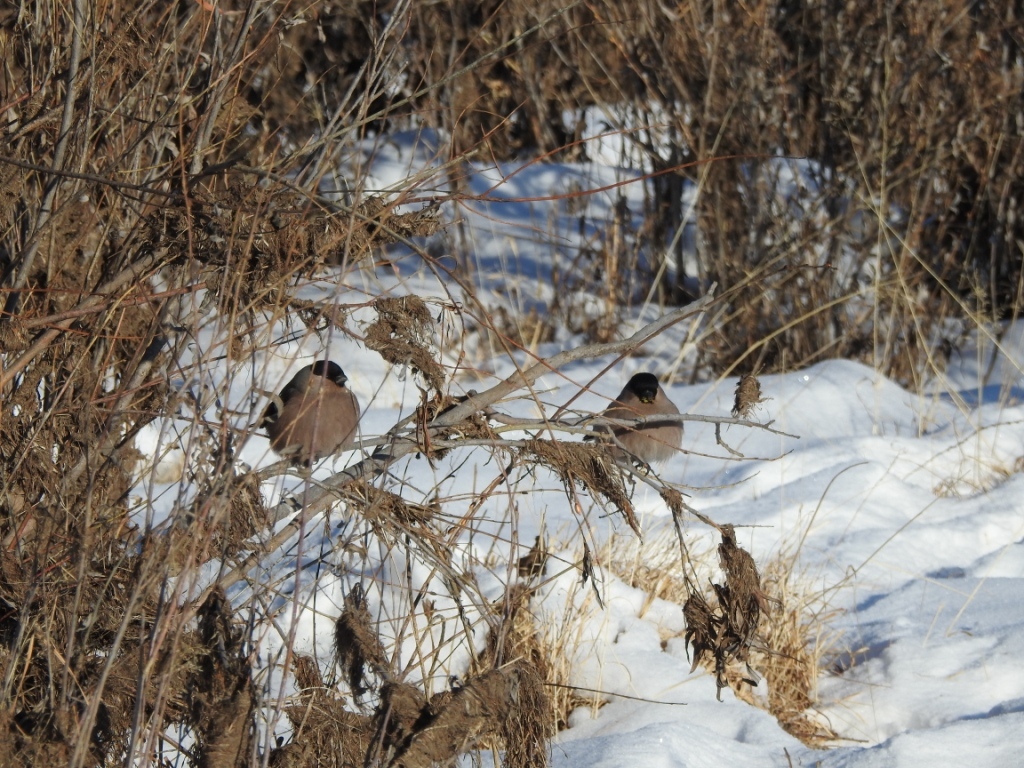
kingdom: Animalia
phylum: Chordata
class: Aves
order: Passeriformes
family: Fringillidae
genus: Pyrrhula
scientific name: Pyrrhula pyrrhula
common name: Eurasian bullfinch
